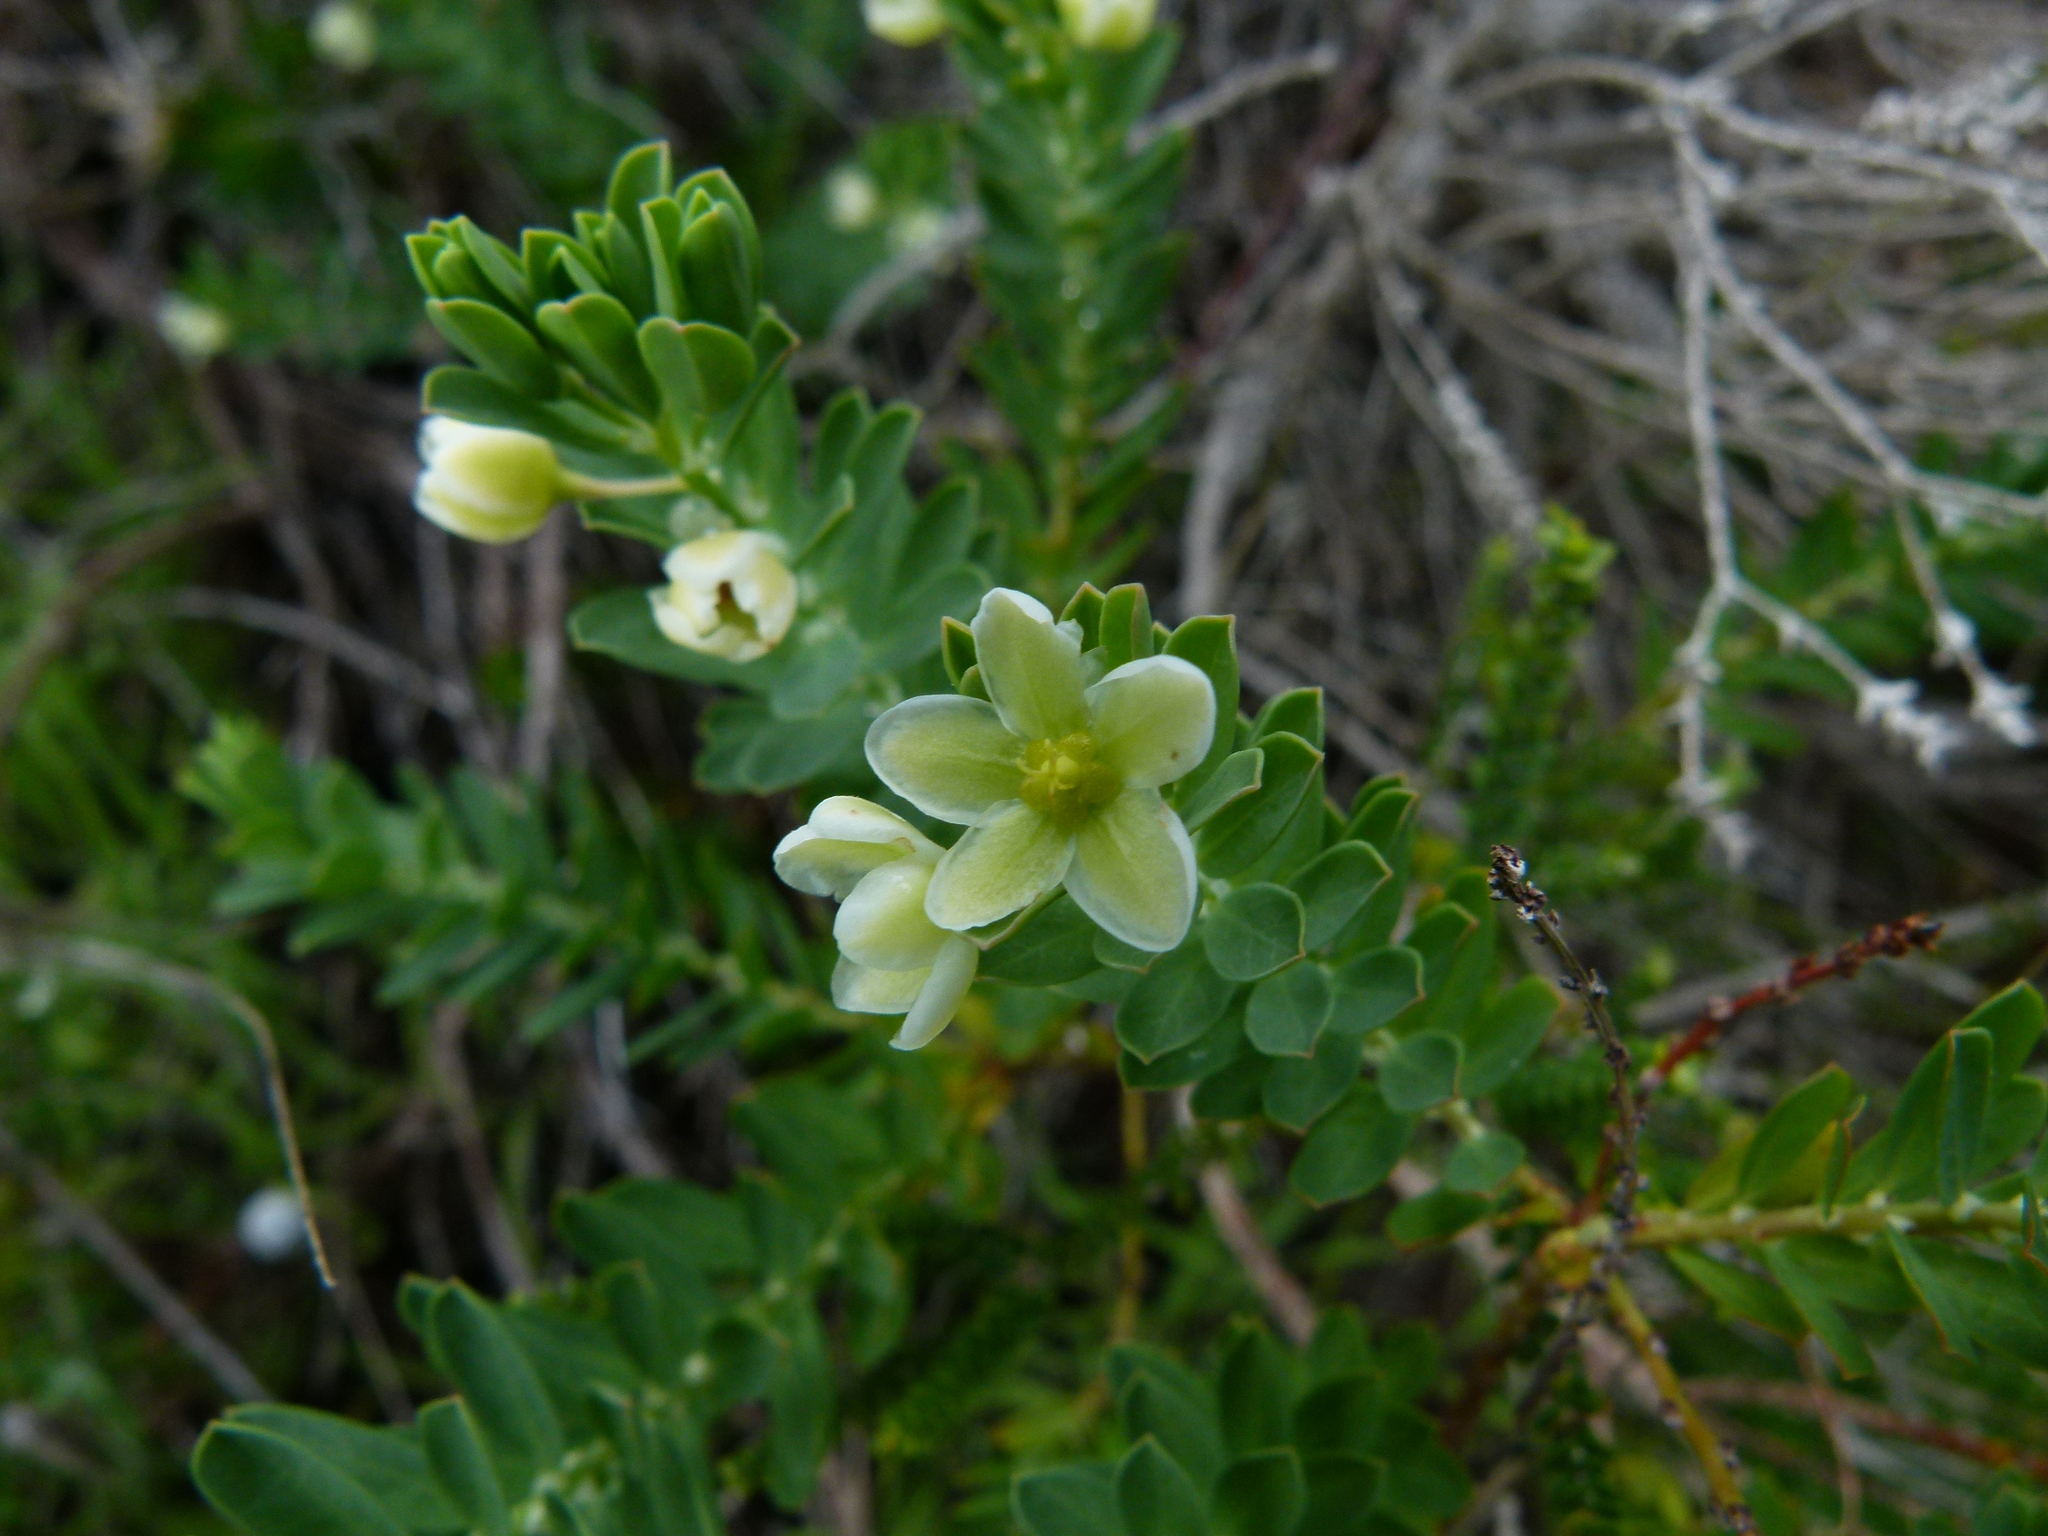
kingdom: Plantae
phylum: Tracheophyta
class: Magnoliopsida
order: Malpighiales
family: Phyllanthaceae
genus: Phyllanthus
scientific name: Phyllanthus calycinus
